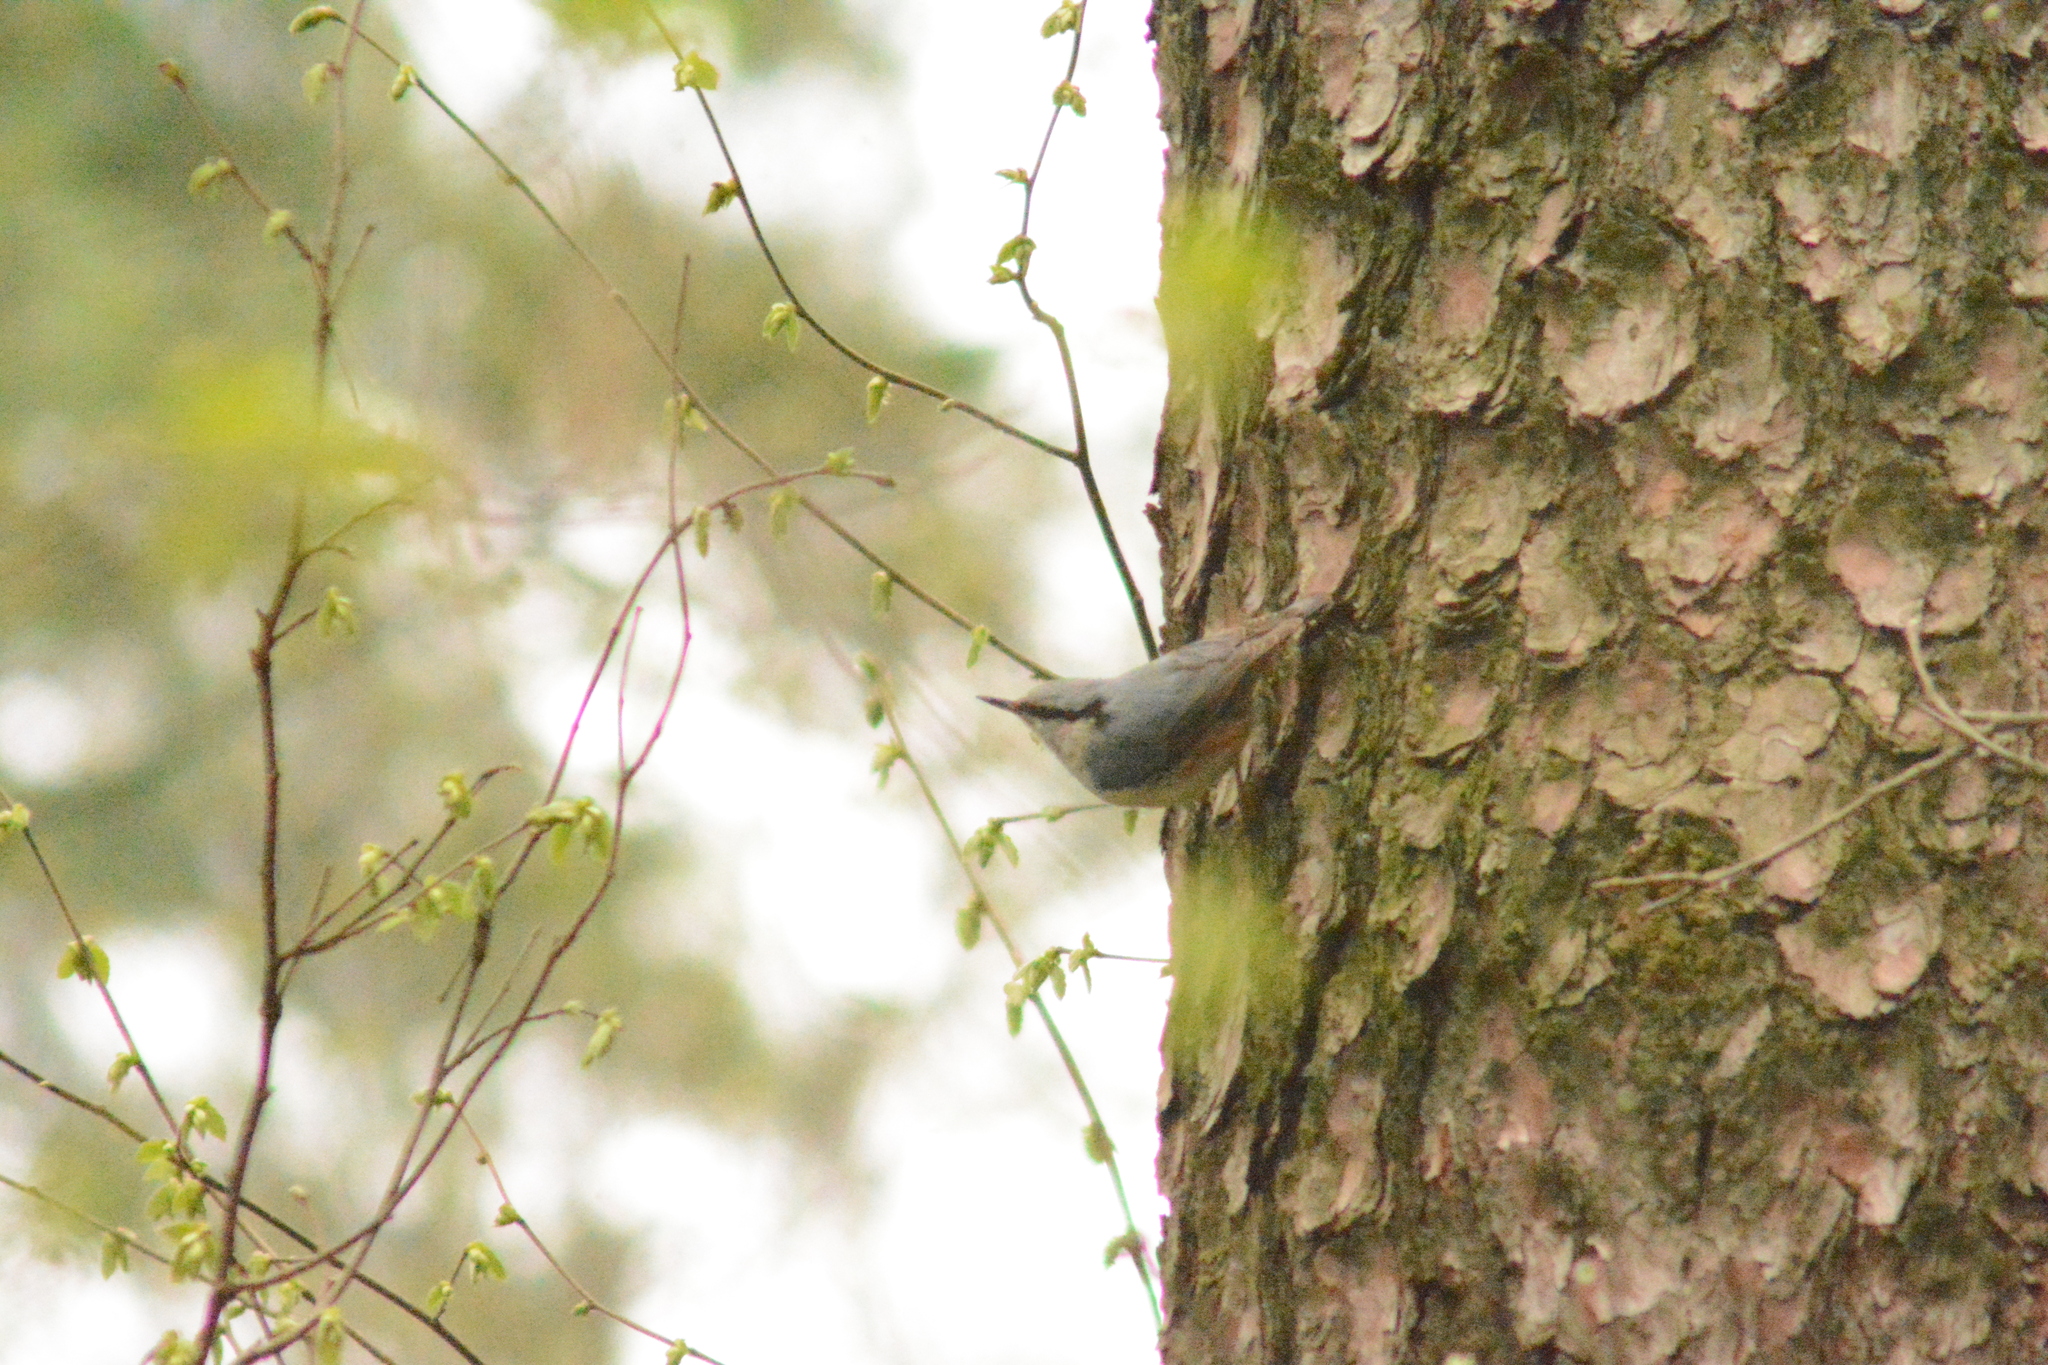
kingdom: Animalia
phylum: Chordata
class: Aves
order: Passeriformes
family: Sittidae
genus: Sitta
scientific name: Sitta europaea
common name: Eurasian nuthatch
